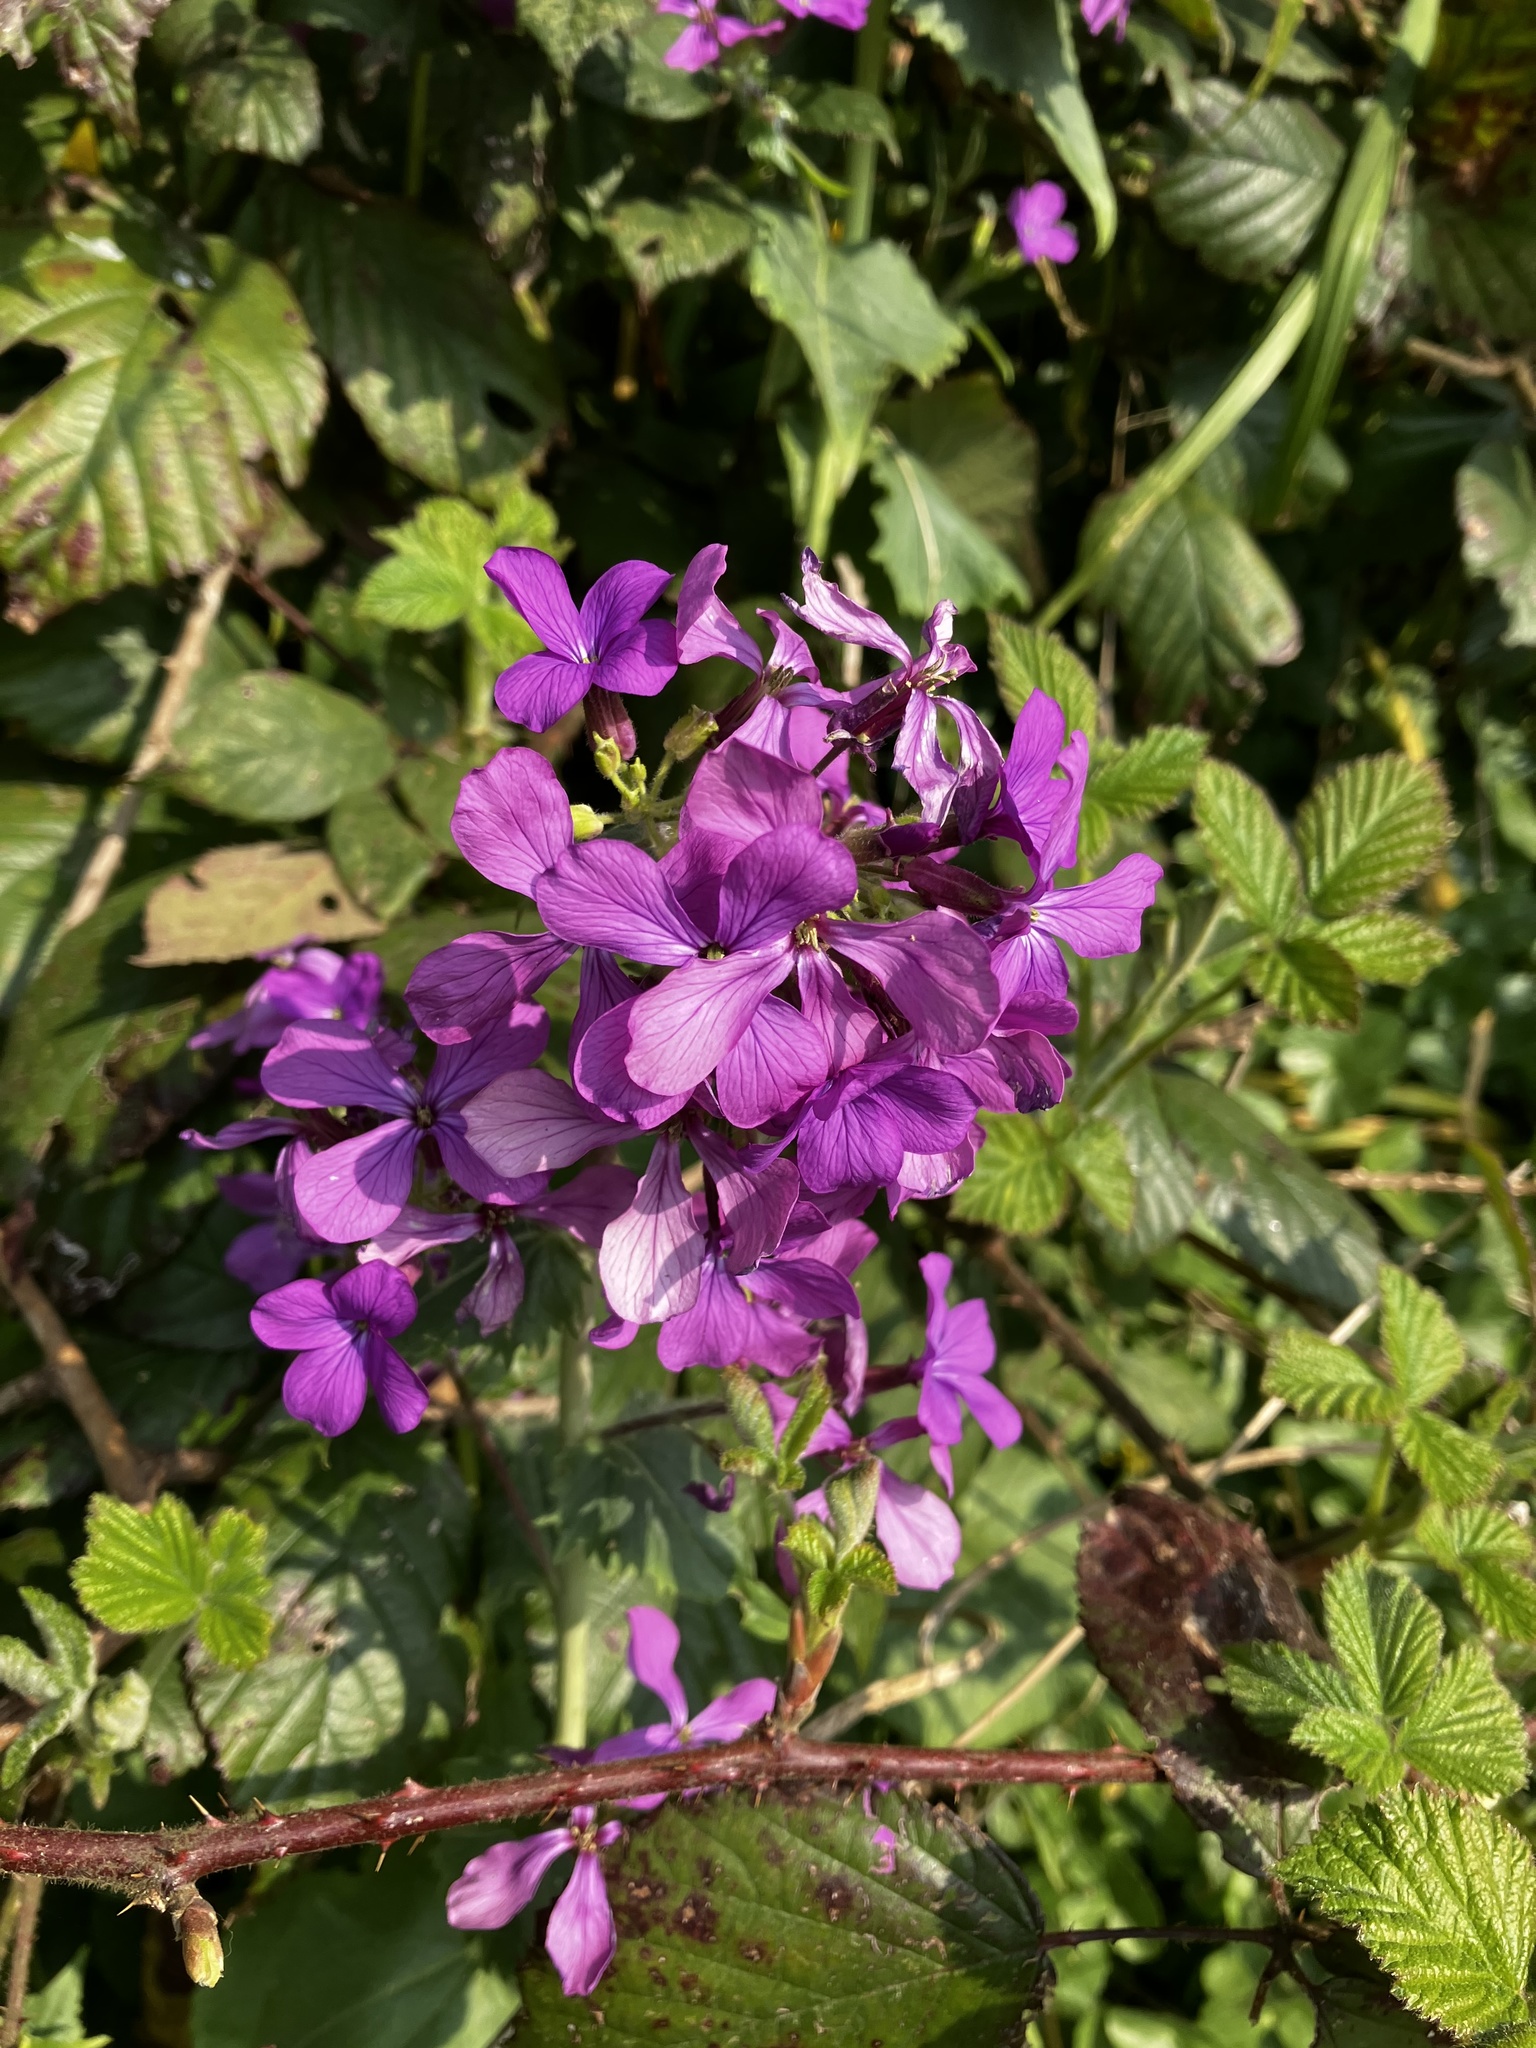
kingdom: Plantae
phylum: Tracheophyta
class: Magnoliopsida
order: Brassicales
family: Brassicaceae
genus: Lunaria
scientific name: Lunaria annua
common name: Honesty
